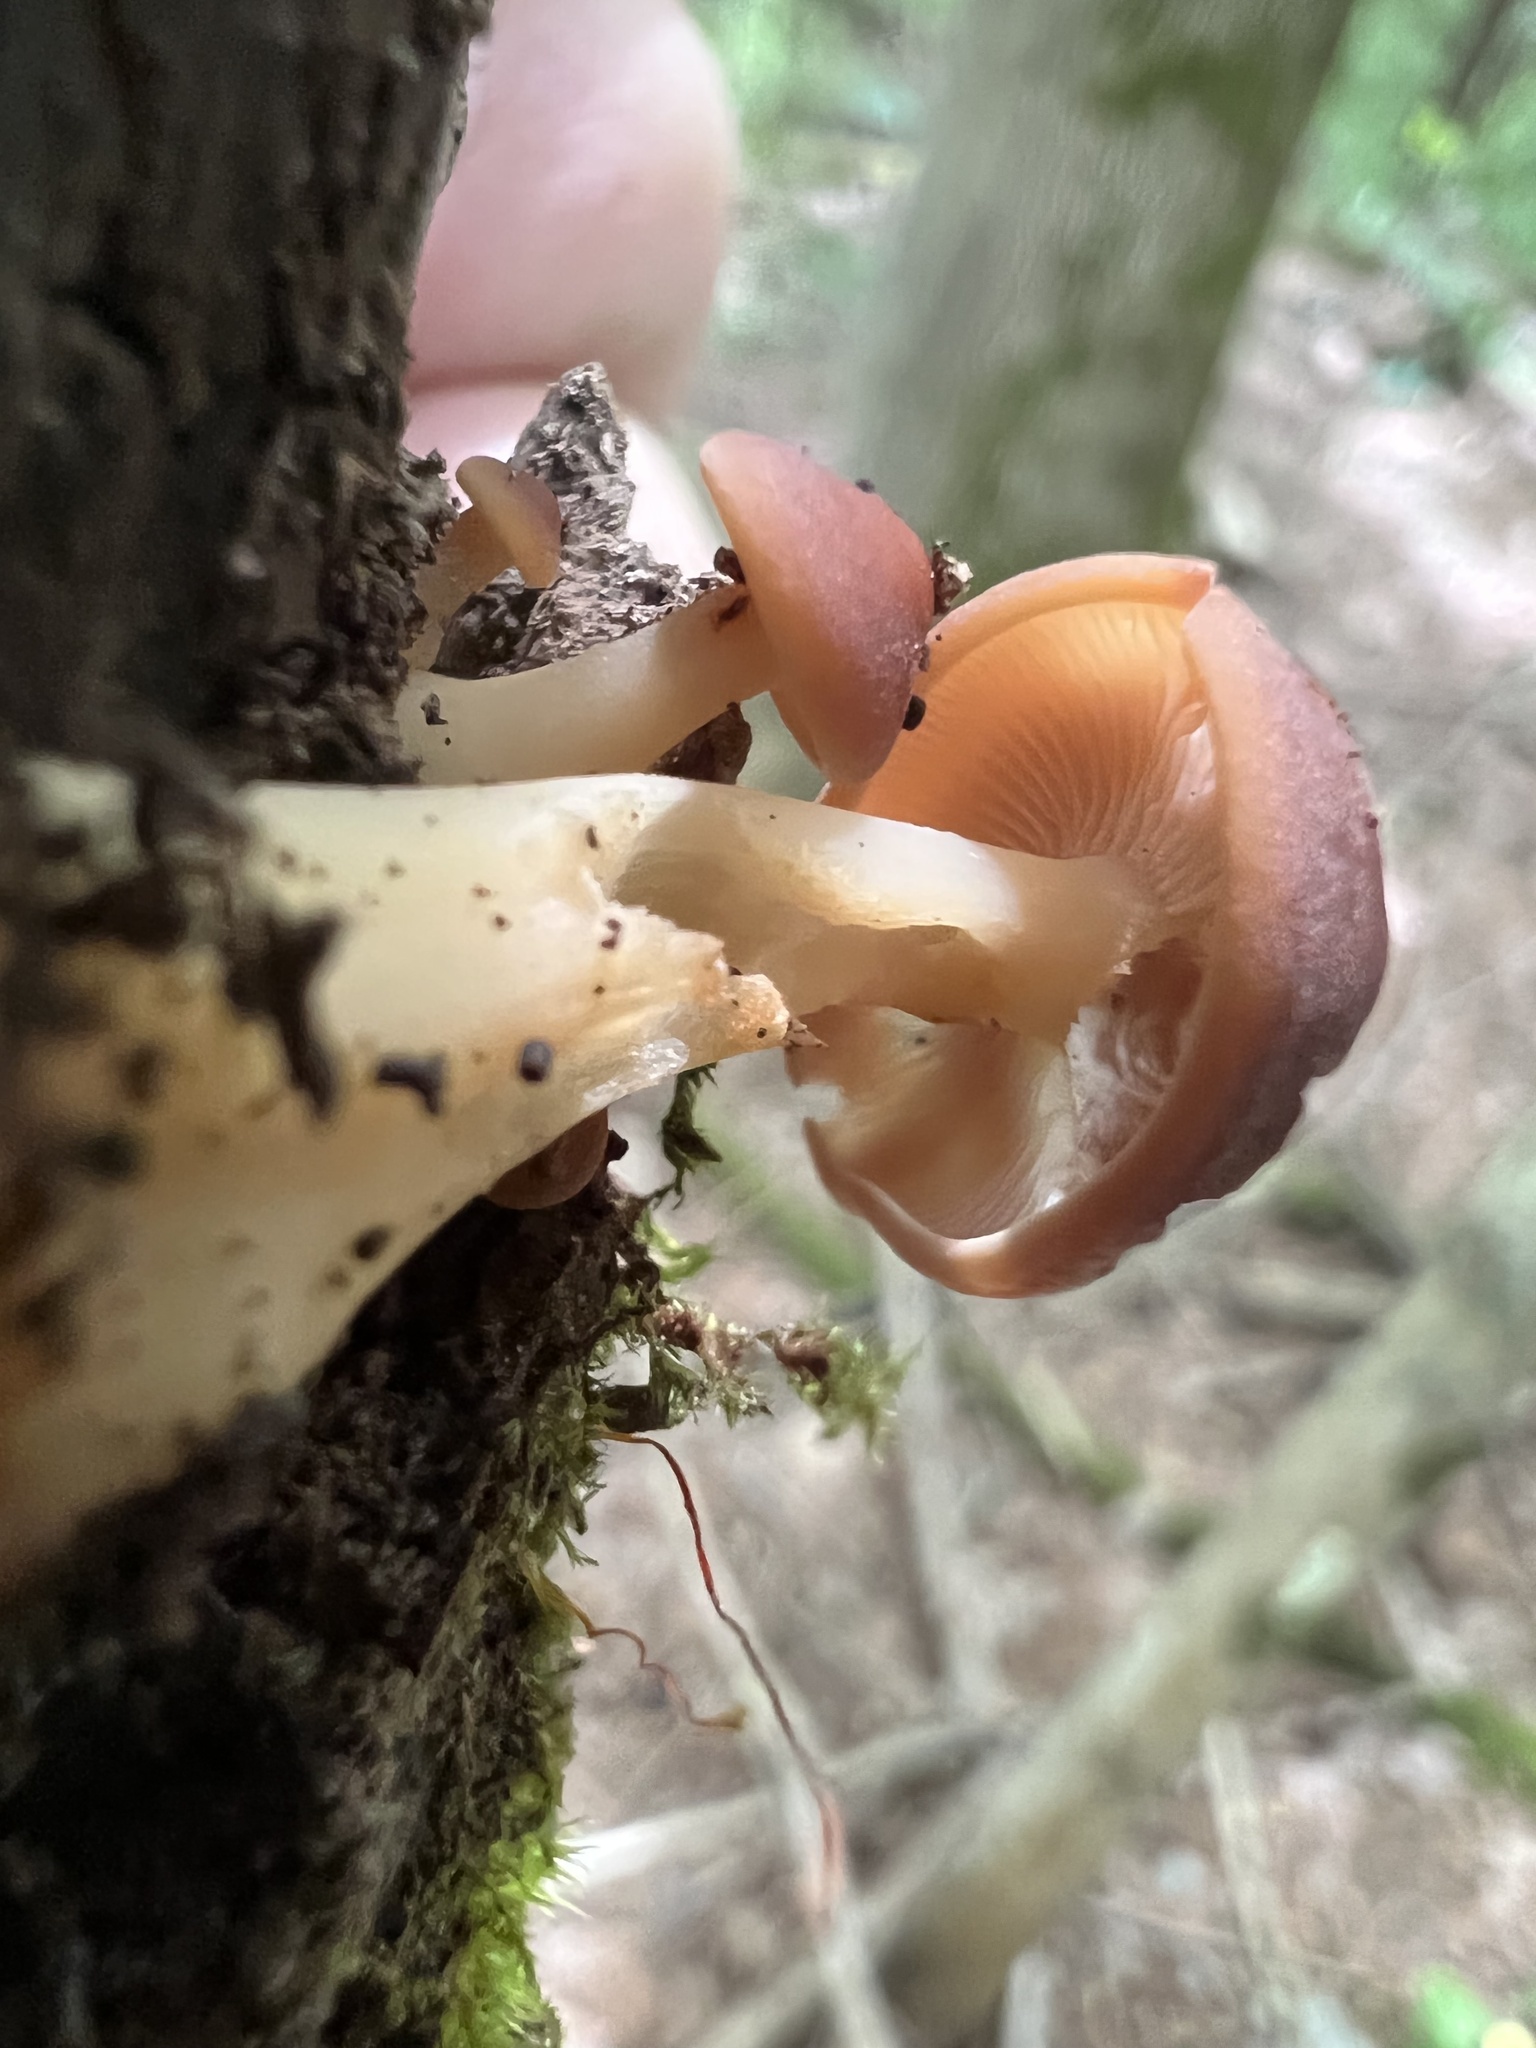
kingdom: Fungi
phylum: Basidiomycota
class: Agaricomycetes
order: Agaricales
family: Omphalotaceae
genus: Gymnopus
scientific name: Gymnopus dryophilus
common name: Penny top
